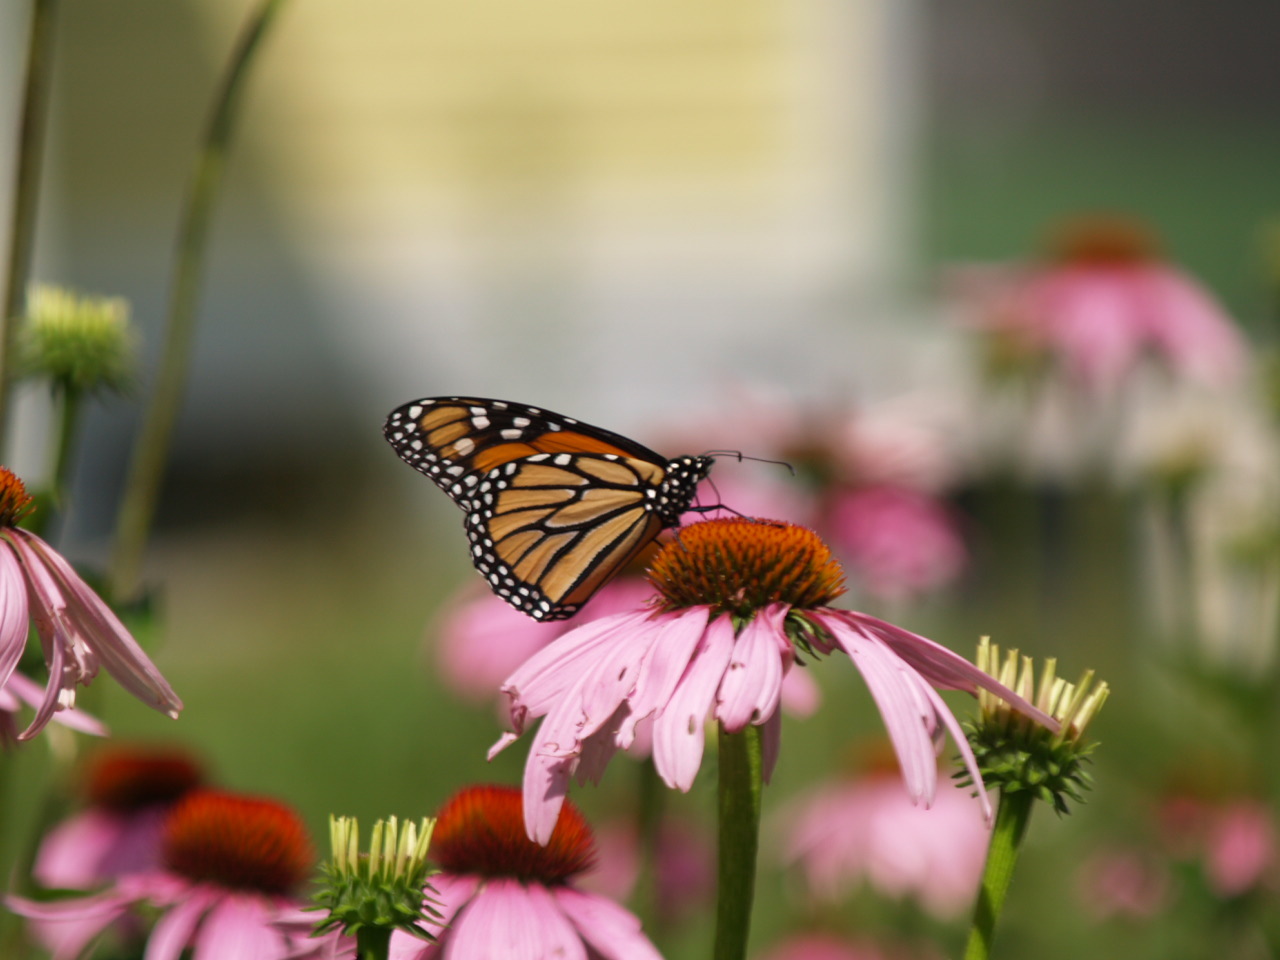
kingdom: Animalia
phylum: Arthropoda
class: Insecta
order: Lepidoptera
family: Nymphalidae
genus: Danaus
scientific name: Danaus plexippus
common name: Monarch
